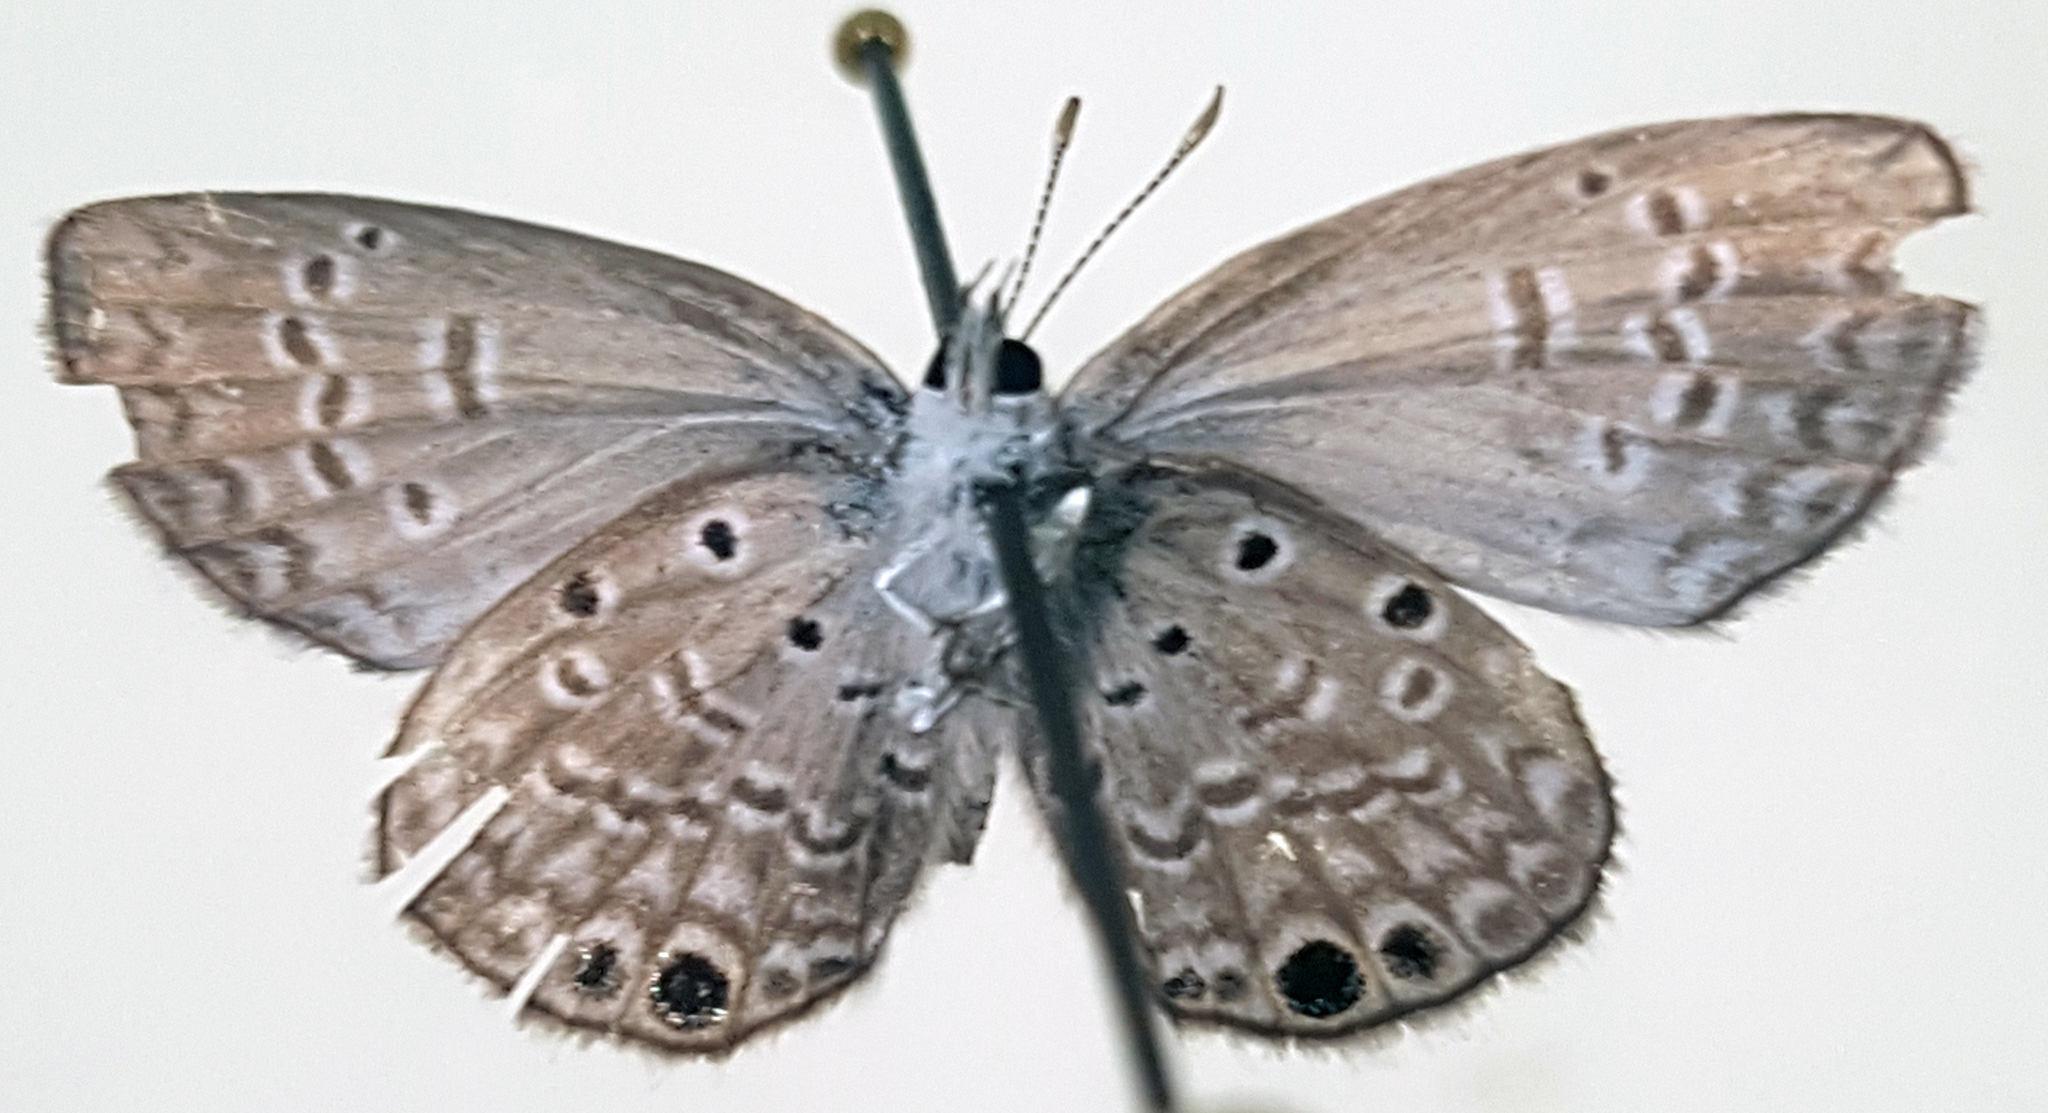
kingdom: Animalia
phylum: Arthropoda
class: Insecta
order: Lepidoptera
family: Lycaenidae
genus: Hemiargus
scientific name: Hemiargus ceraunus
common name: Ceraunus blue
